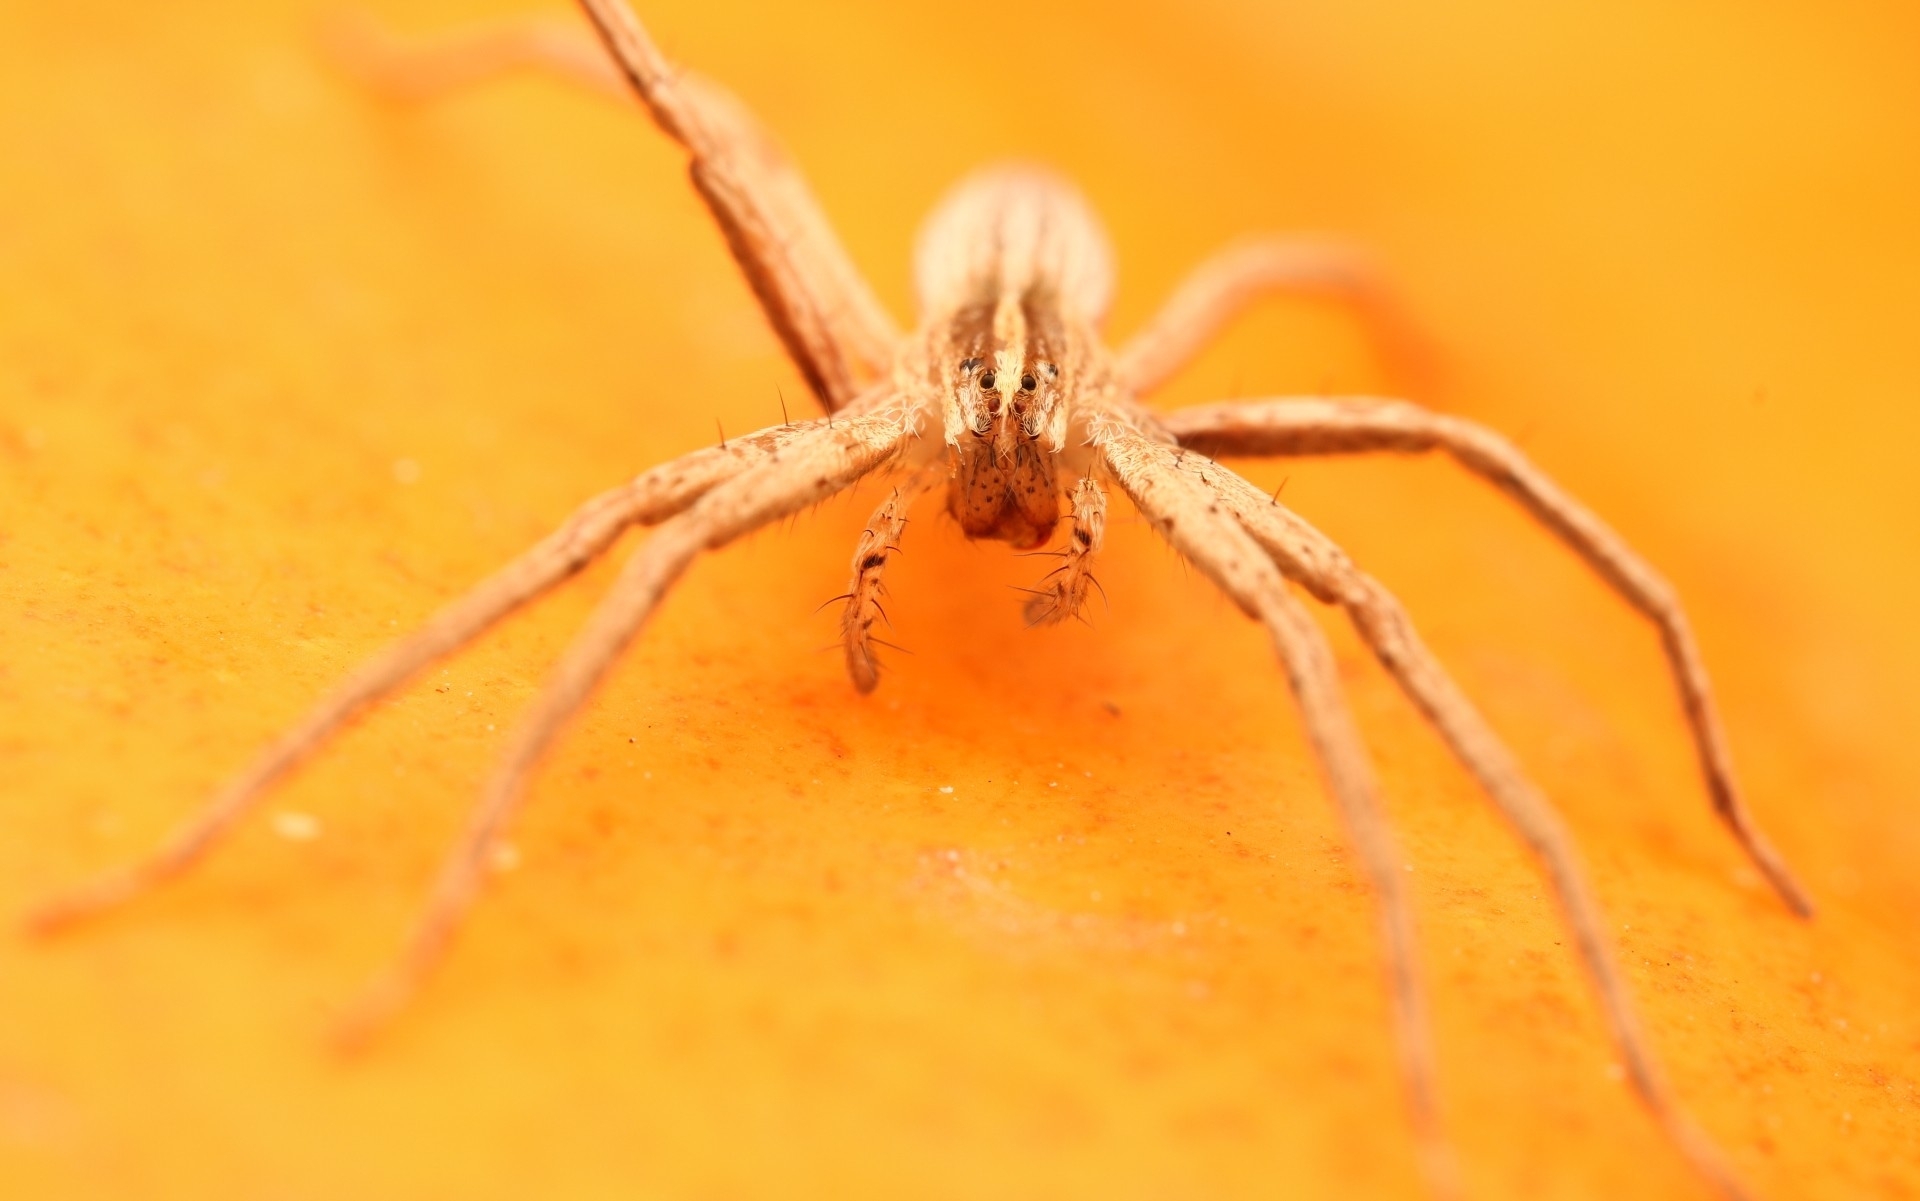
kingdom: Animalia
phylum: Arthropoda
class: Arachnida
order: Araneae
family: Pisauridae
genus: Pisaurina
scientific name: Pisaurina dubia
